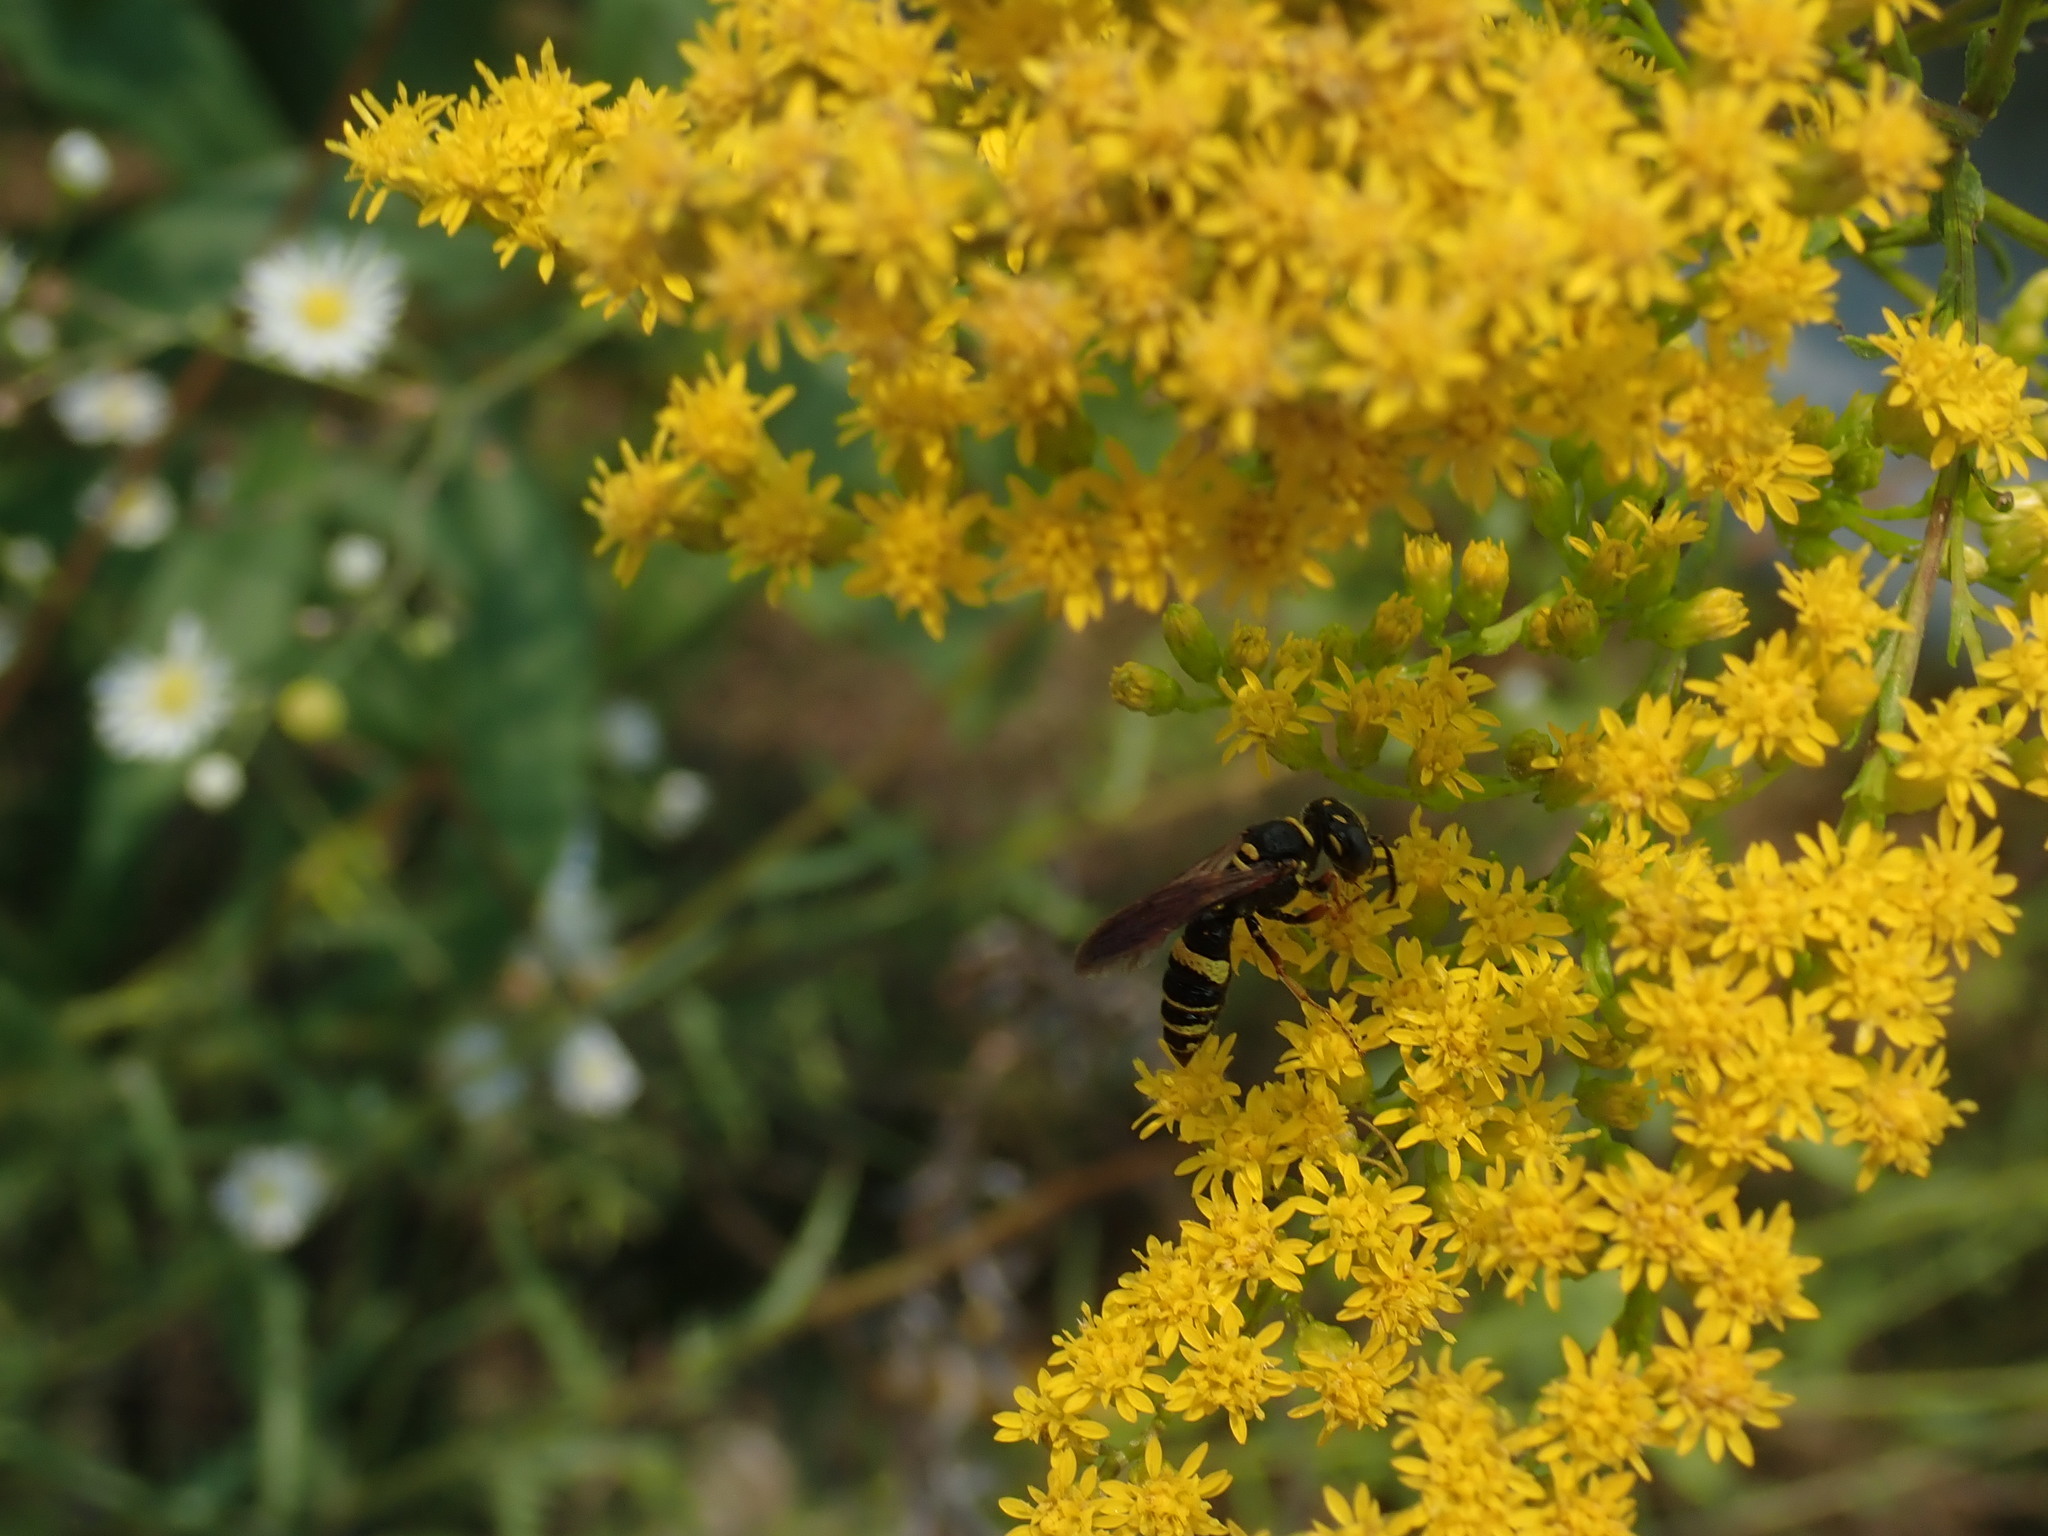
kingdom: Animalia
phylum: Arthropoda
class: Insecta
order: Hymenoptera
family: Crabronidae
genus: Philanthus
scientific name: Philanthus gibbosus
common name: Humped beewolf
